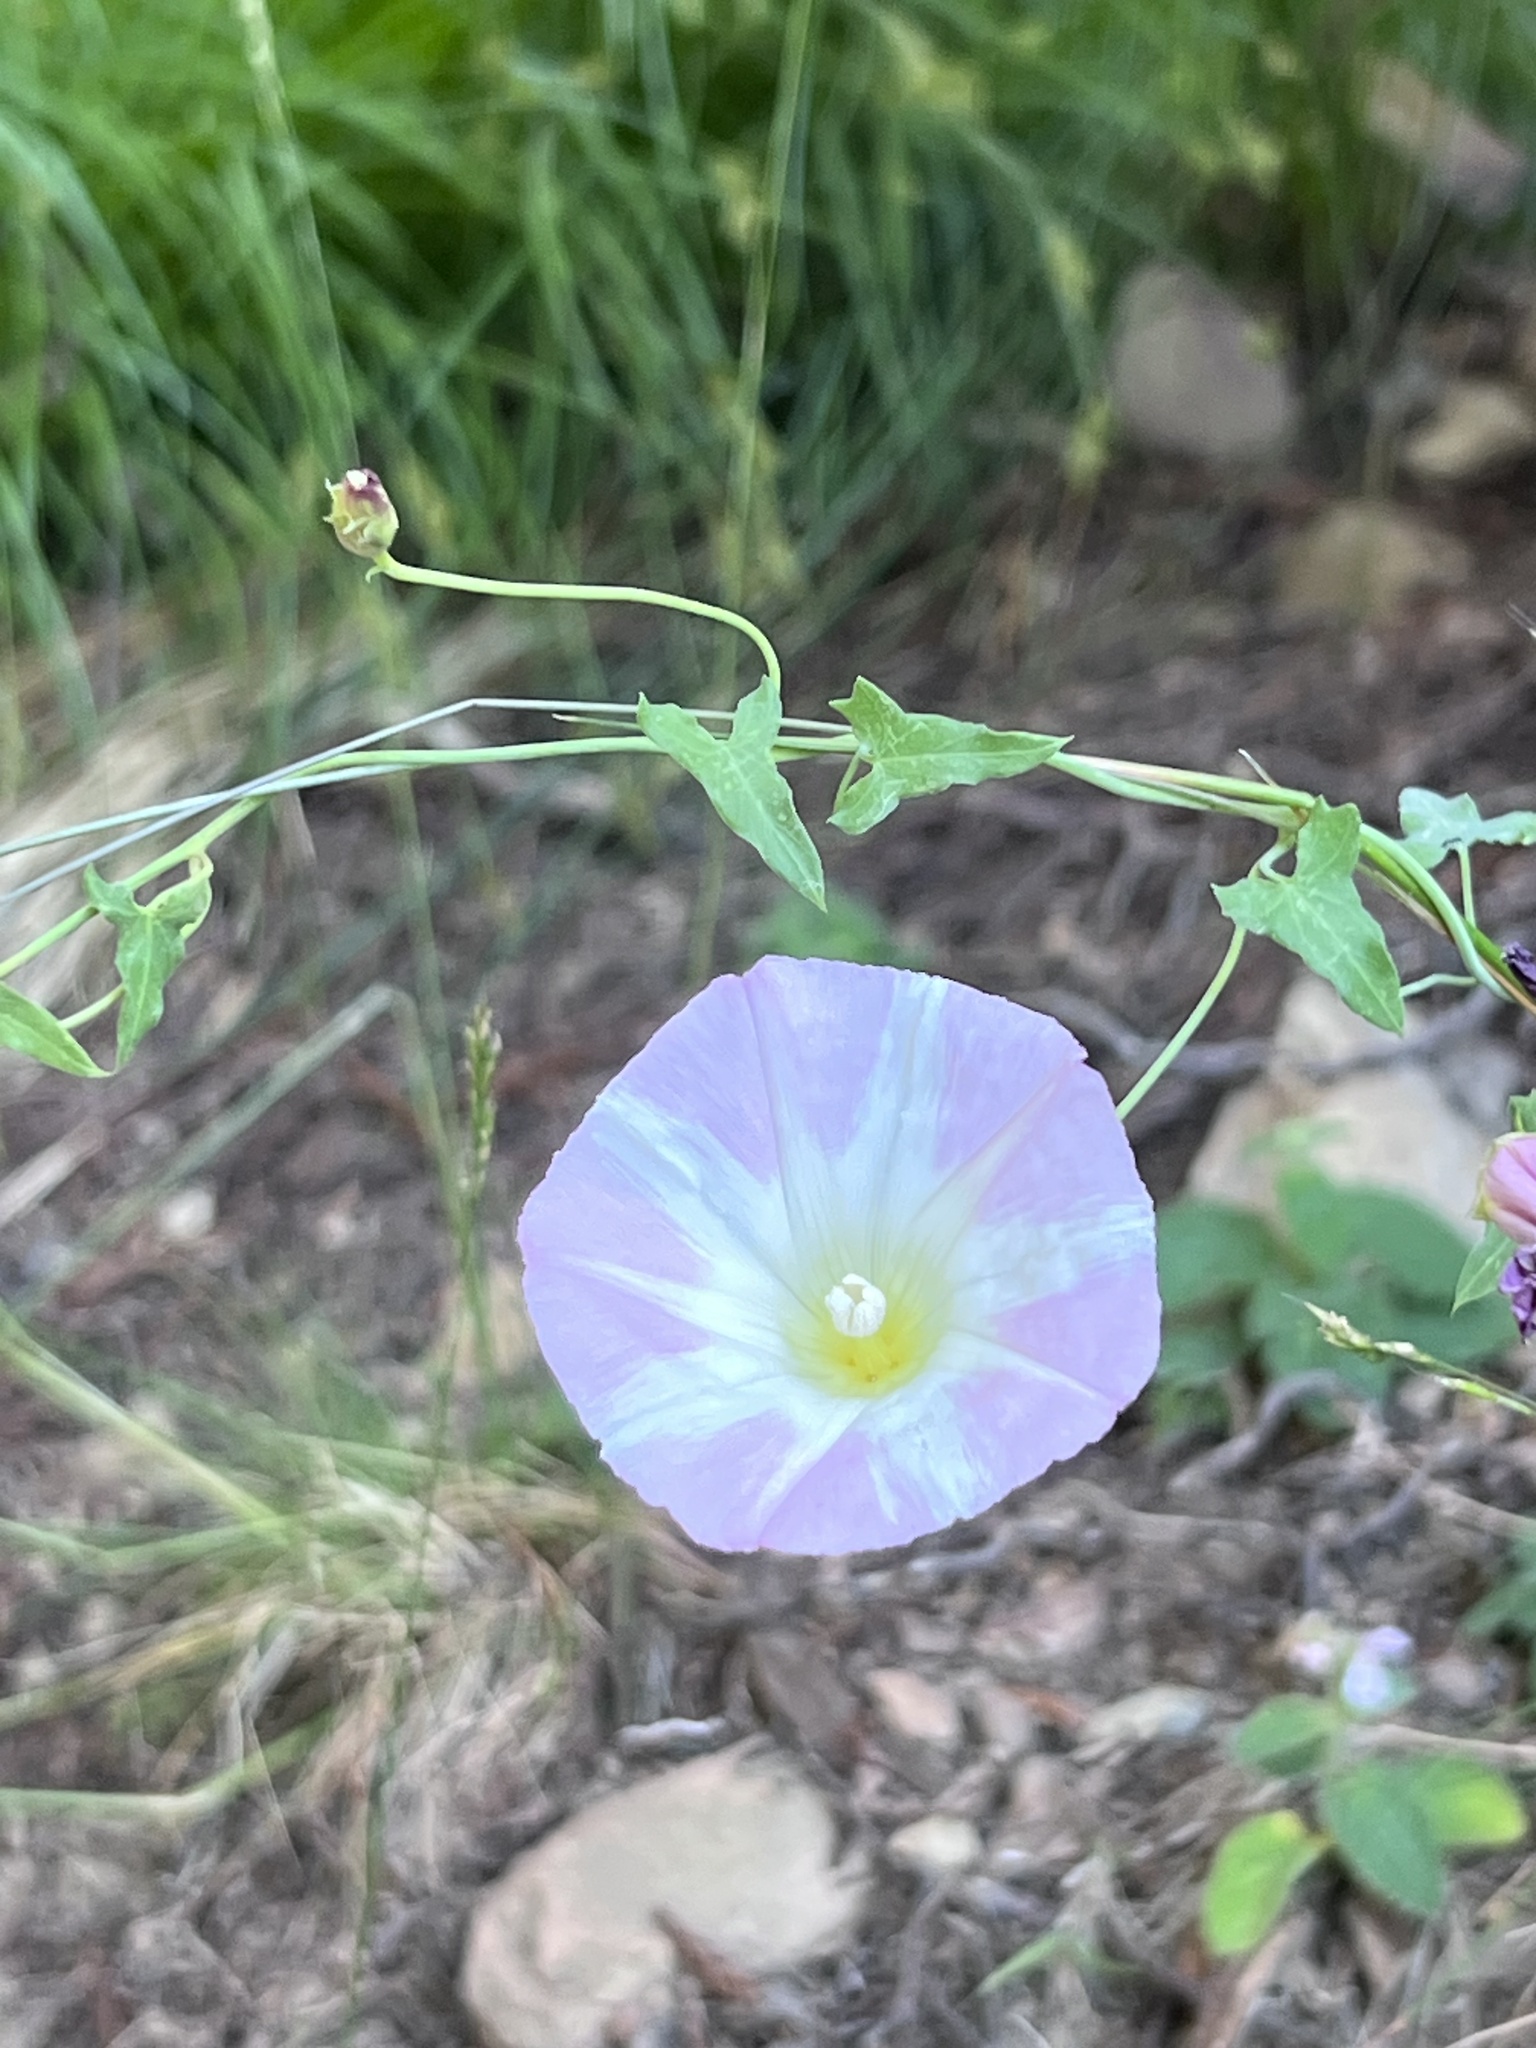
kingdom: Plantae
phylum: Tracheophyta
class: Magnoliopsida
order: Solanales
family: Convolvulaceae
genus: Calystegia
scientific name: Calystegia purpurata
